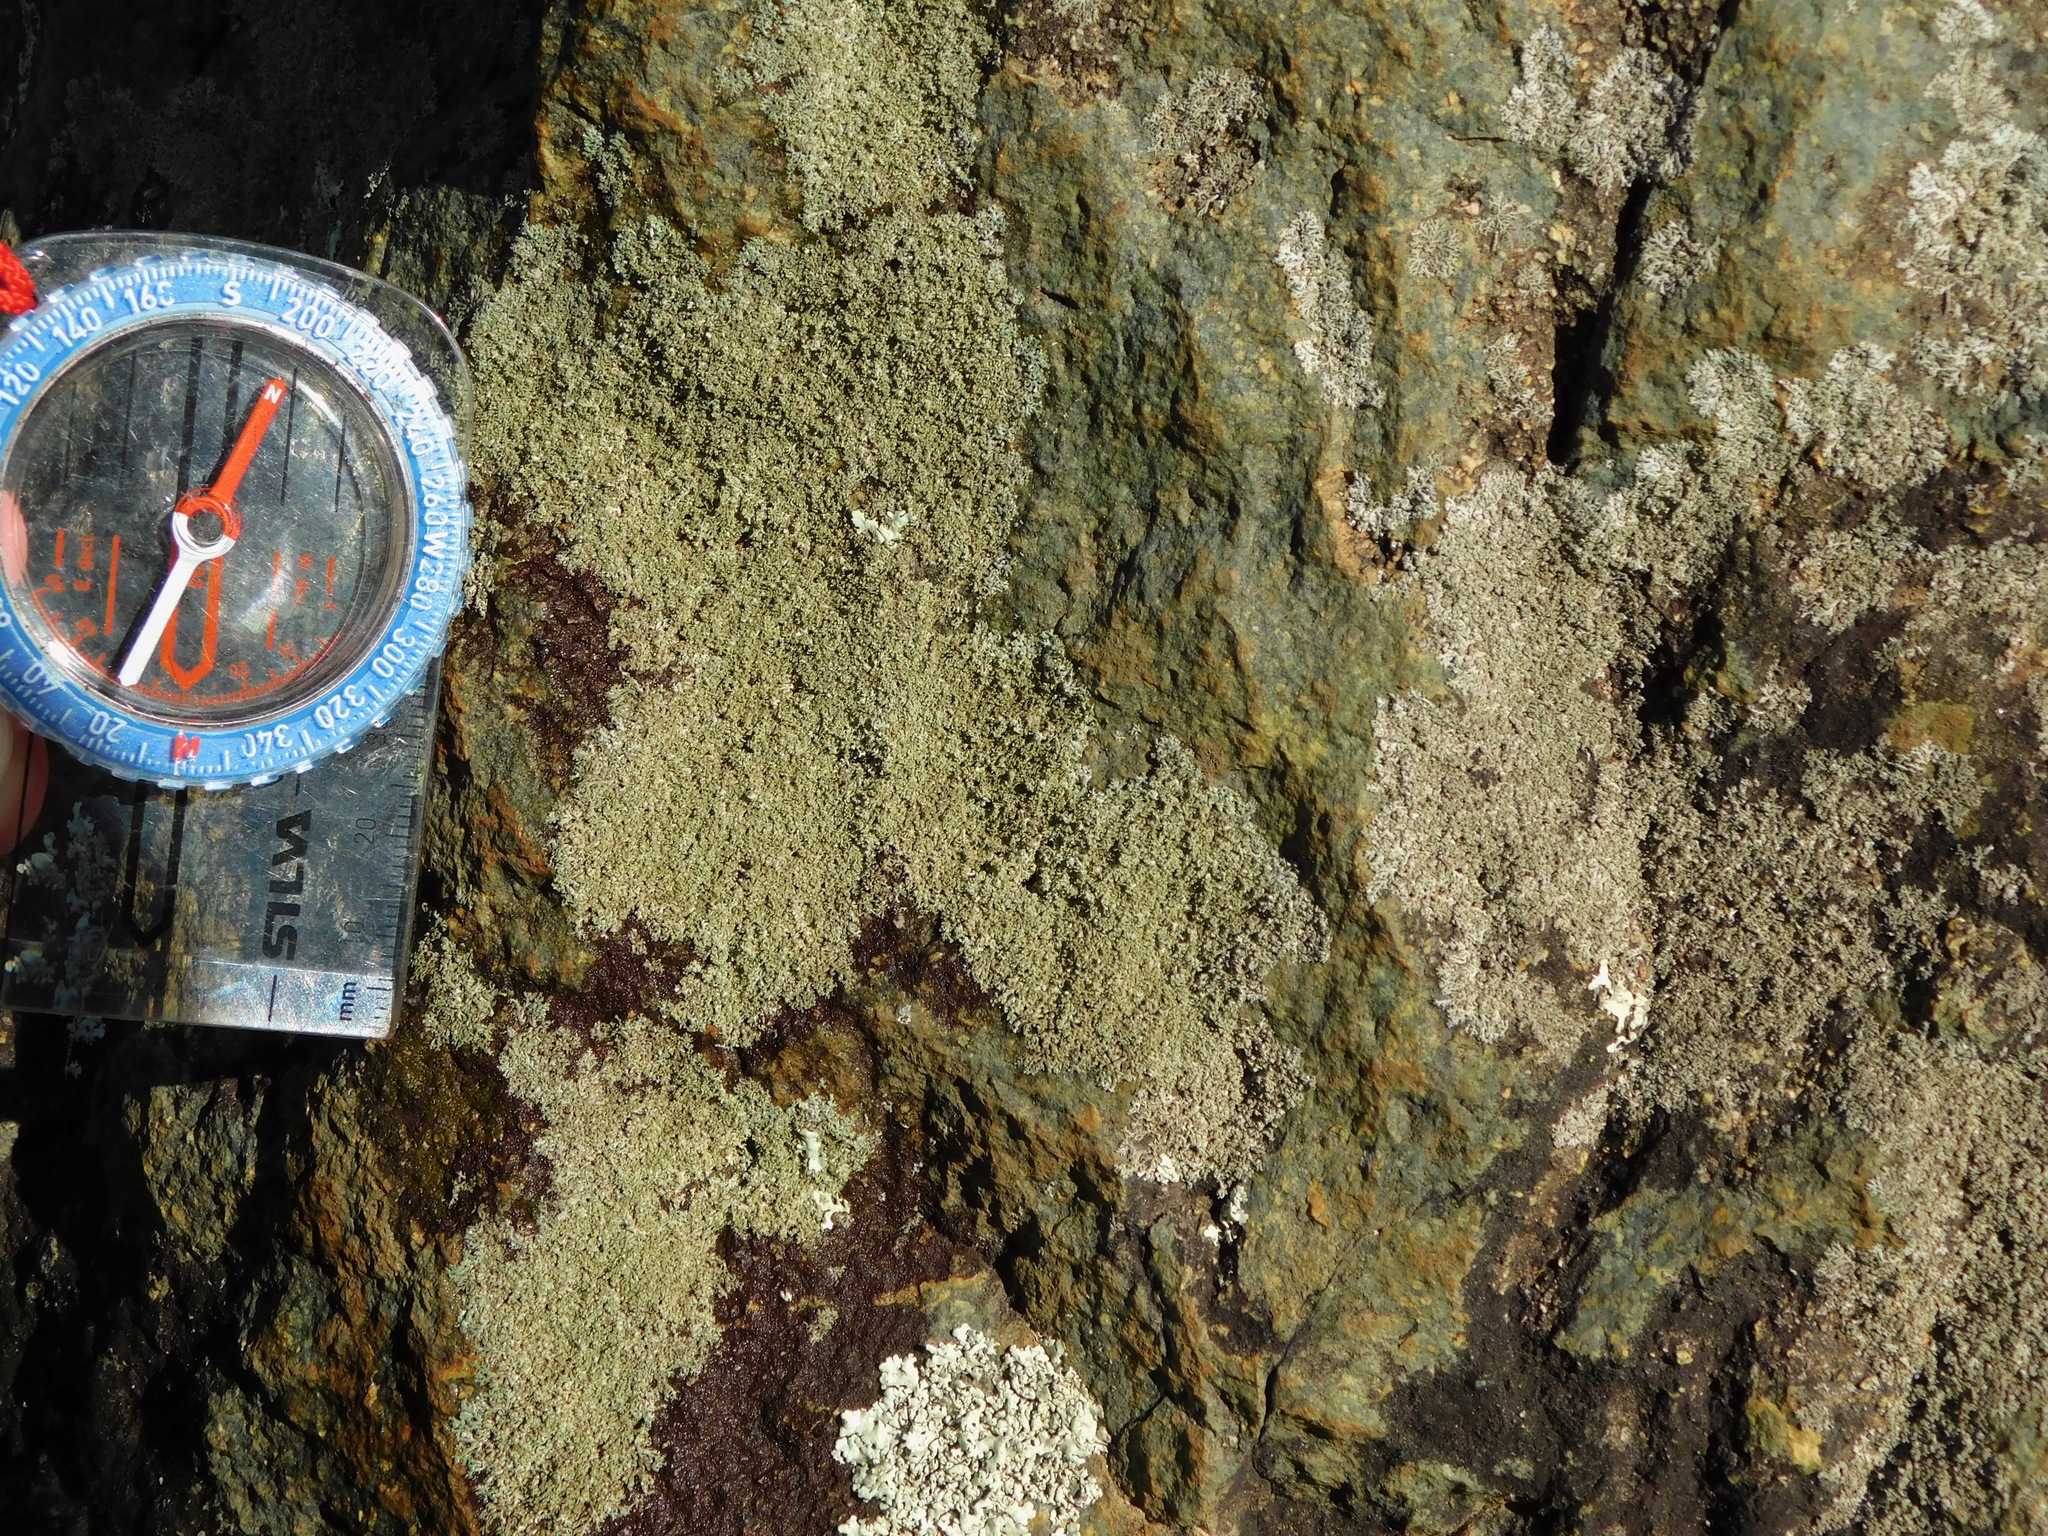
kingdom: Fungi
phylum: Ascomycota
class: Lecanoromycetes
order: Caliciales
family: Physciaceae
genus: Physcia
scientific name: Physcia subtilis
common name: Slender rosette lichen
